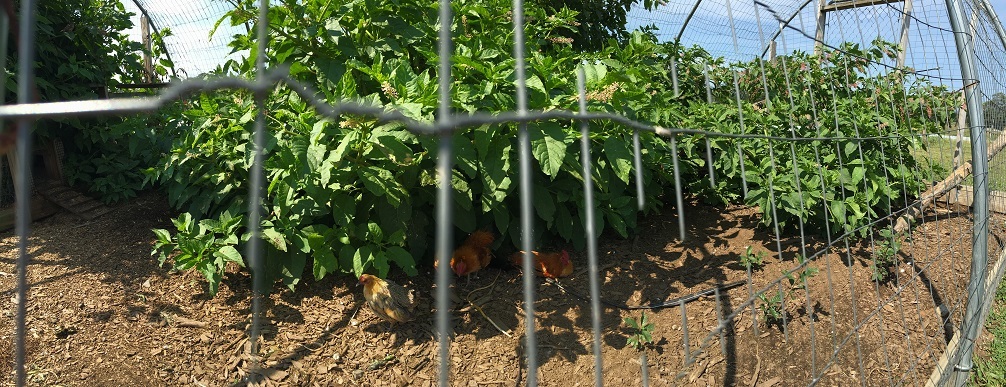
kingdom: Plantae
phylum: Tracheophyta
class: Magnoliopsida
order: Caryophyllales
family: Phytolaccaceae
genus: Phytolacca
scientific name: Phytolacca americana
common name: American pokeweed
